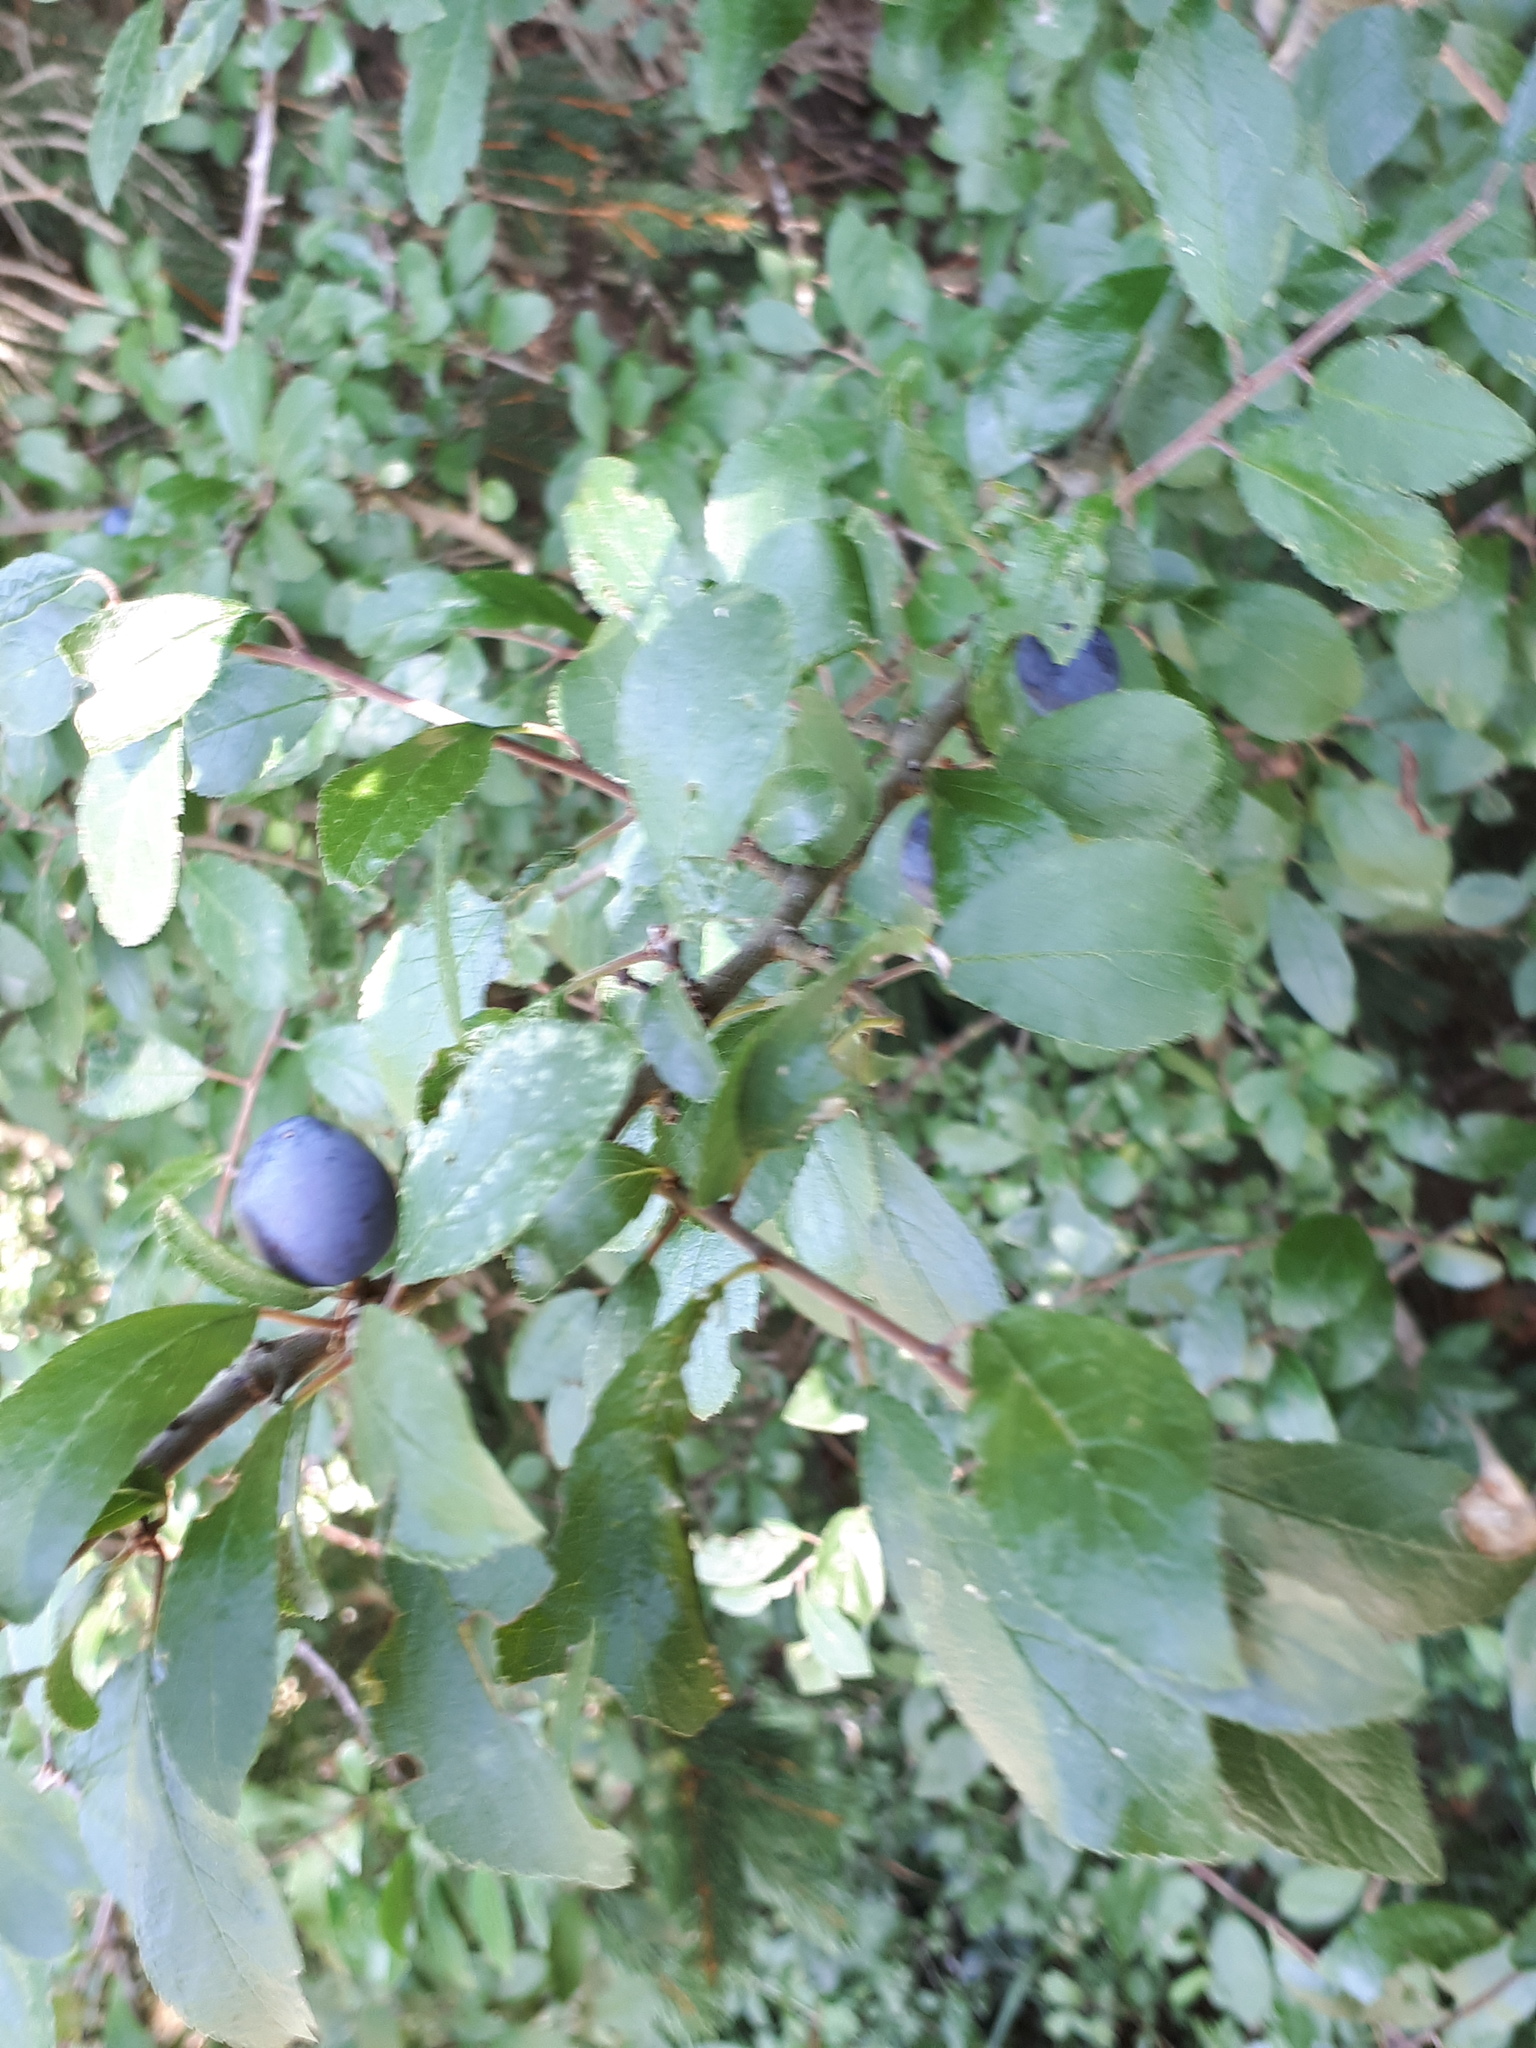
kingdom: Plantae
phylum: Tracheophyta
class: Magnoliopsida
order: Rosales
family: Rosaceae
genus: Prunus
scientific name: Prunus spinosa
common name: Blackthorn
